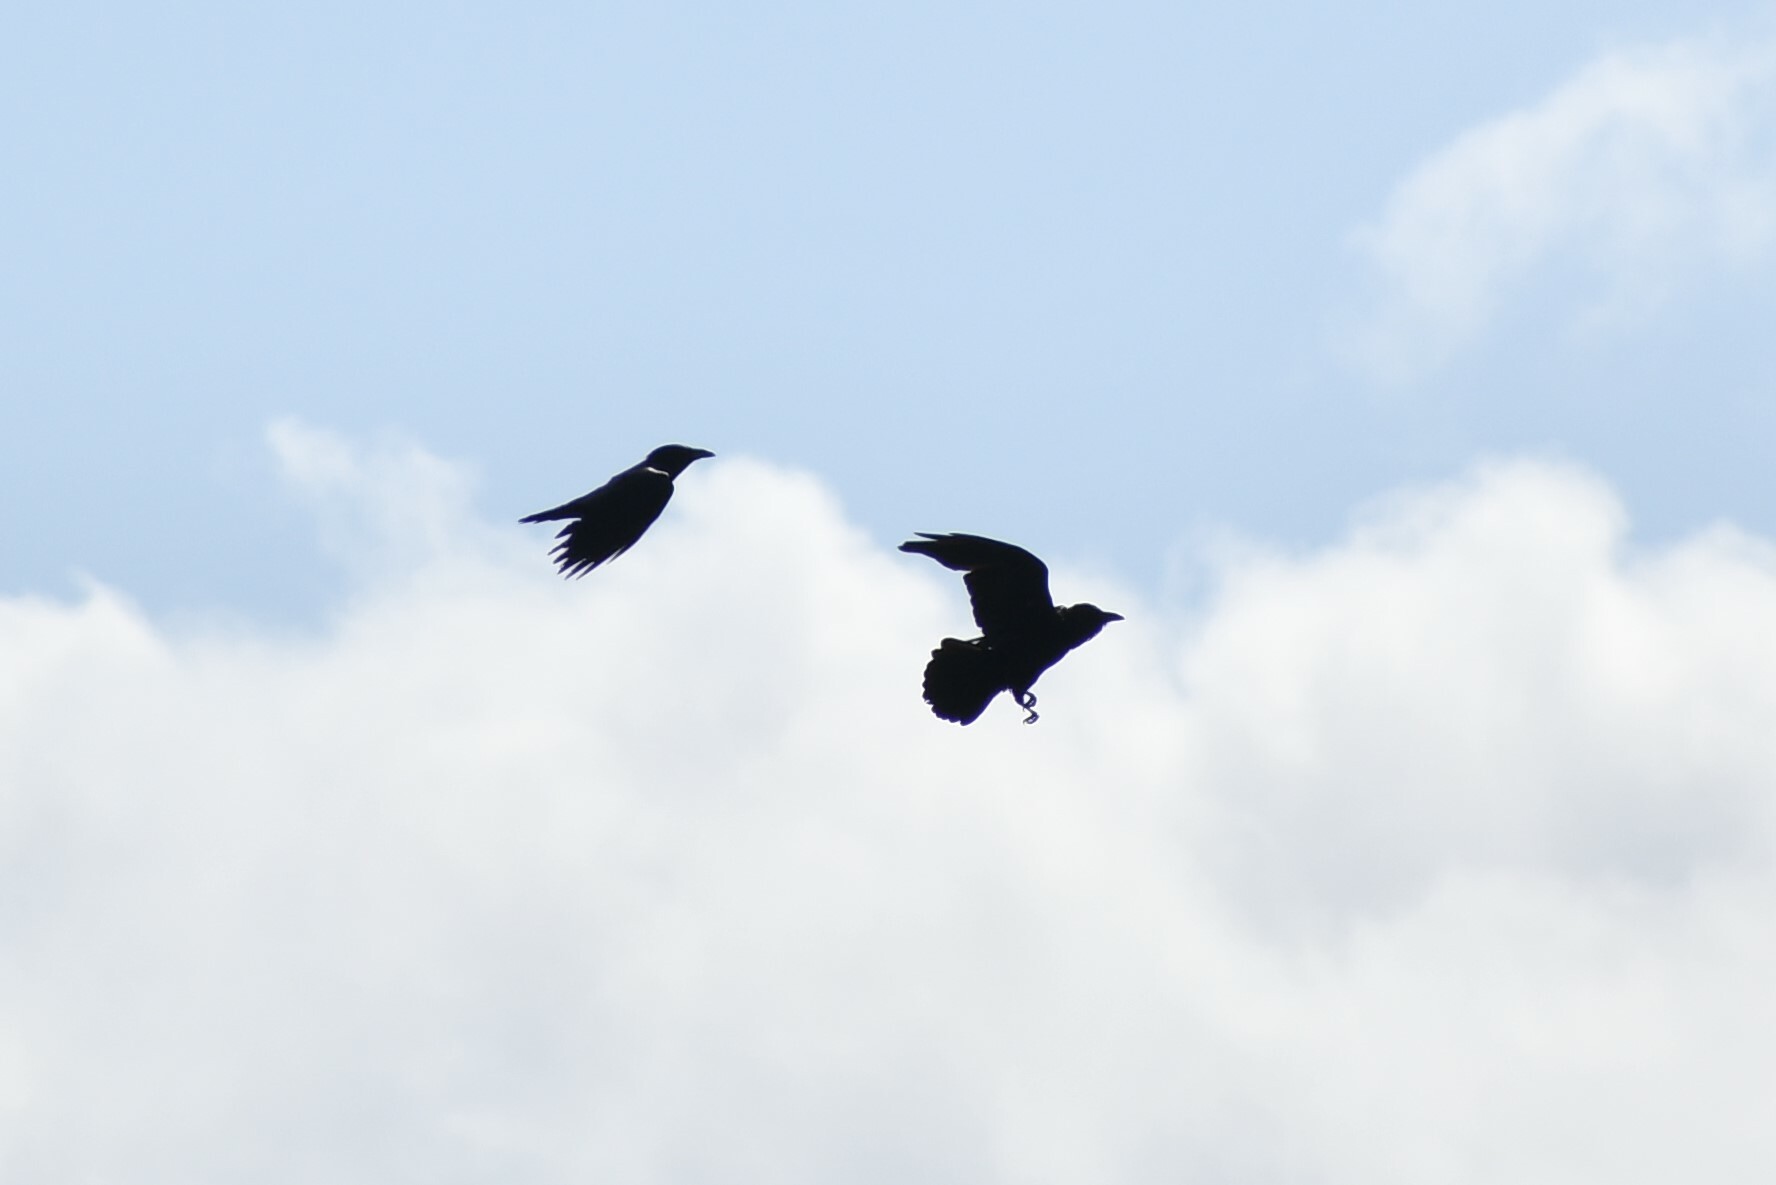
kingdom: Animalia
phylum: Chordata
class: Aves
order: Passeriformes
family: Corvidae
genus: Corvus
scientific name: Corvus brachyrhynchos
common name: American crow
